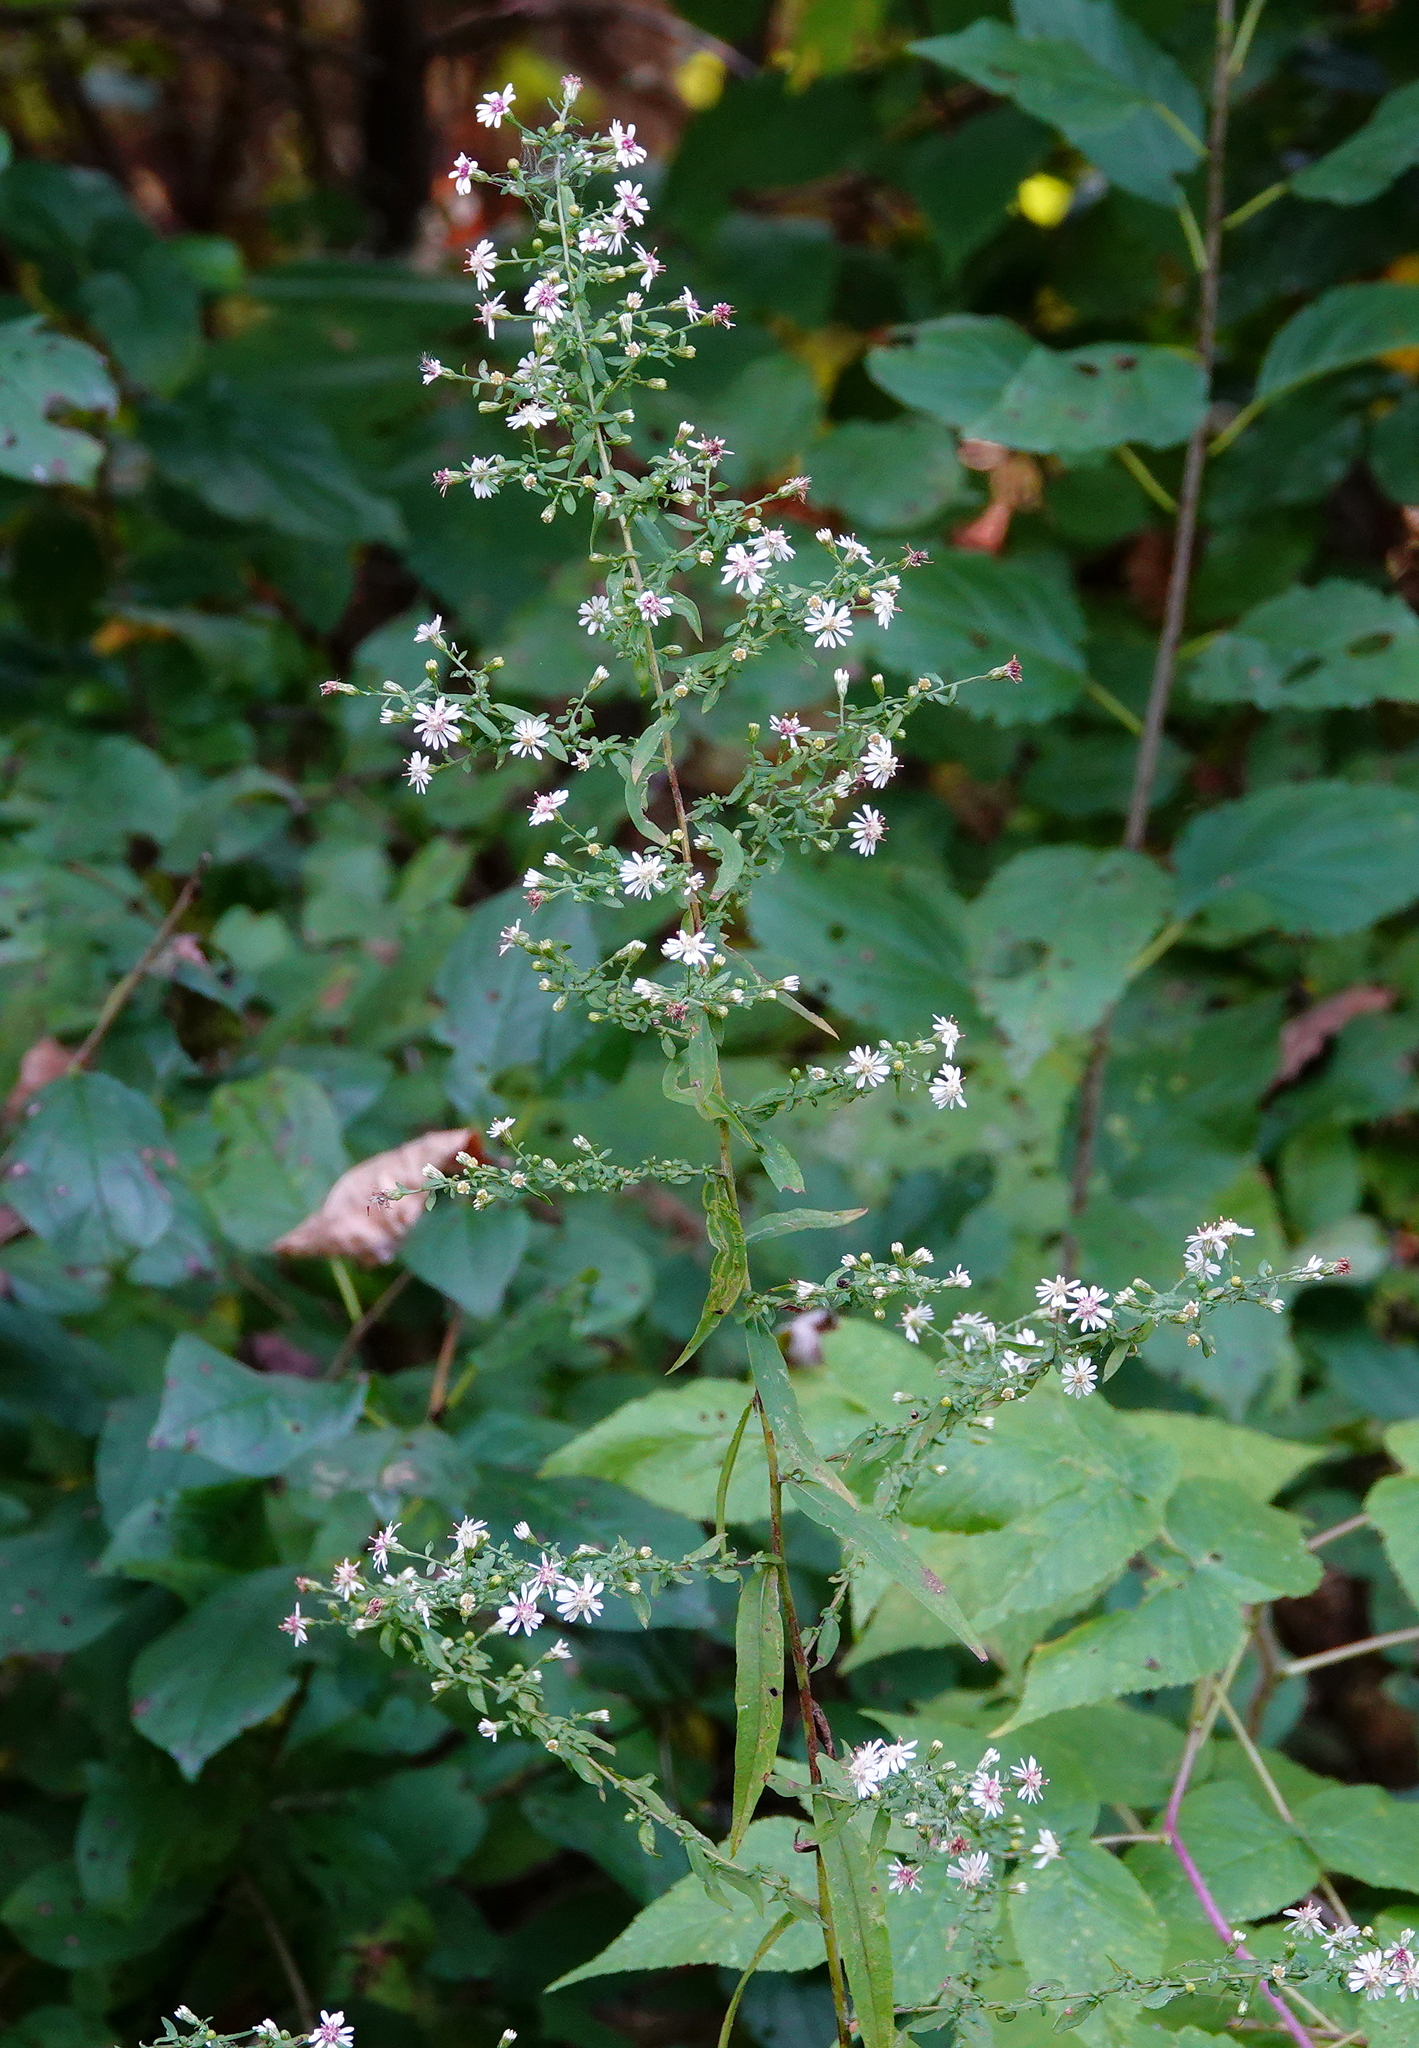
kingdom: Plantae
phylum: Tracheophyta
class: Magnoliopsida
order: Asterales
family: Asteraceae
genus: Symphyotrichum
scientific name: Symphyotrichum lateriflorum
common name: Calico aster
